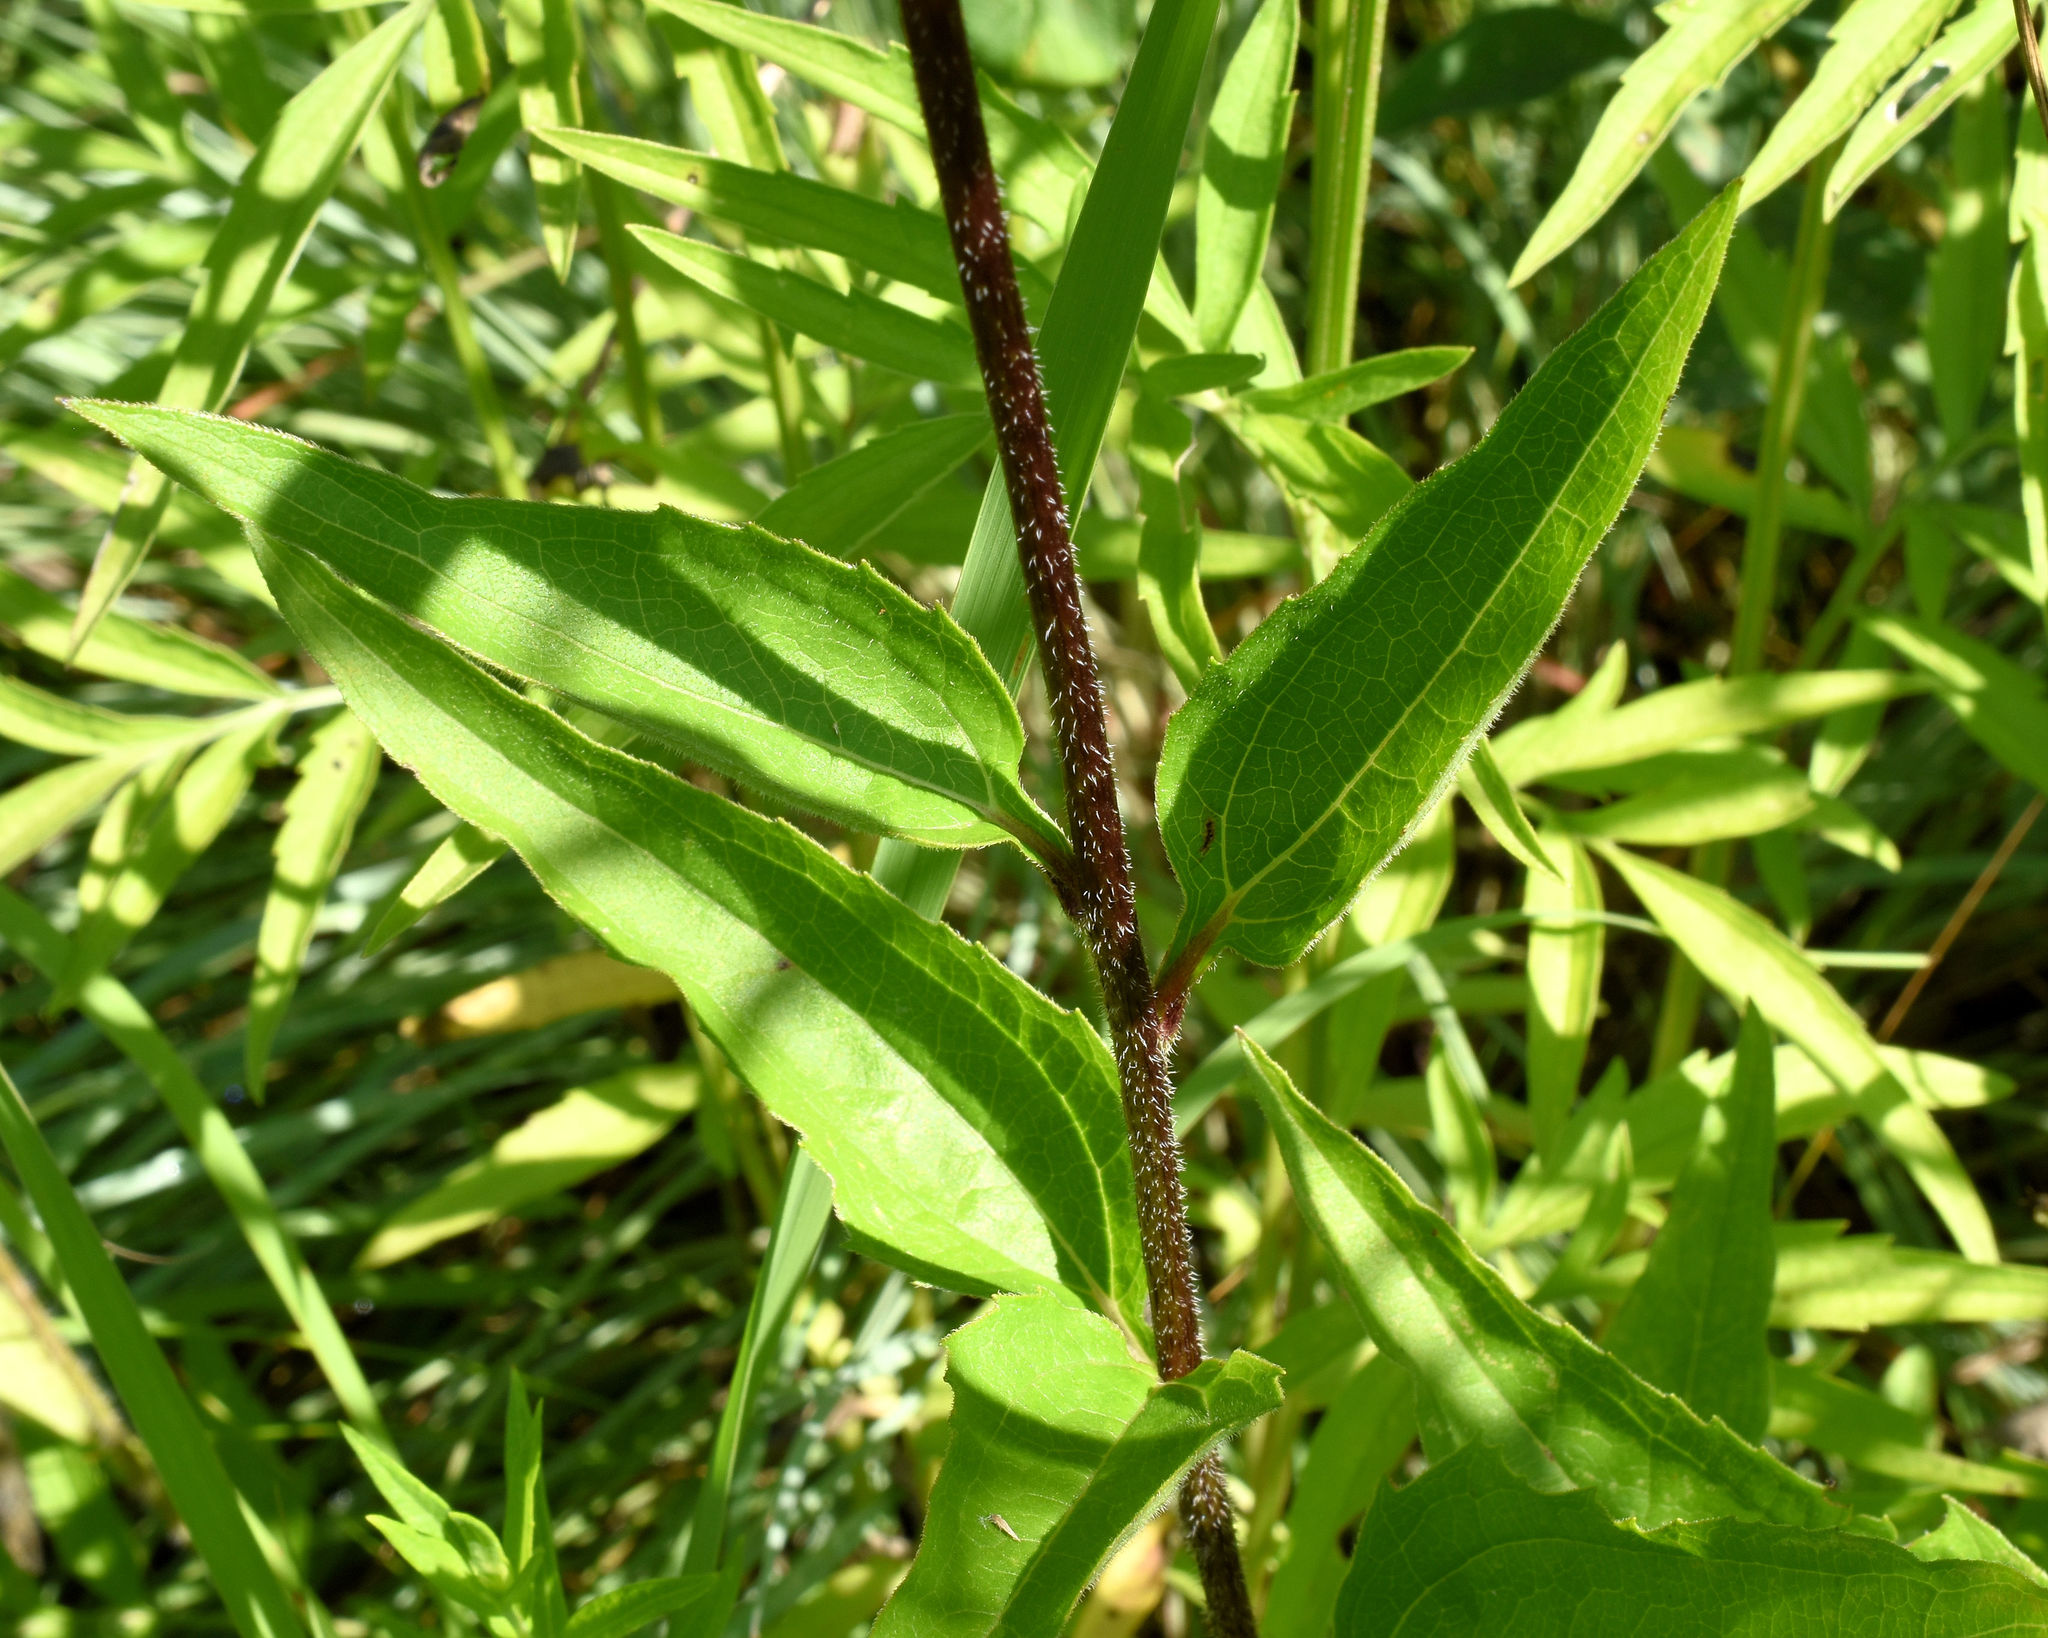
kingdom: Plantae
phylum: Tracheophyta
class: Magnoliopsida
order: Asterales
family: Asteraceae
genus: Echinacea
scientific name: Echinacea purpurea
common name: Broad-leaved purple coneflower
